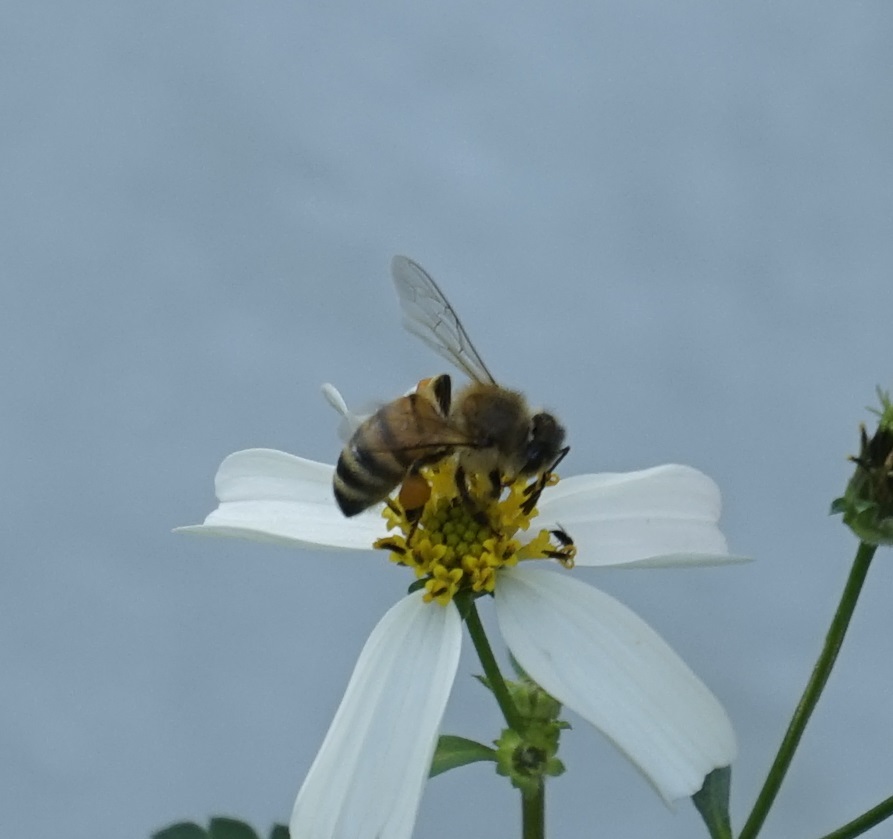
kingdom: Animalia
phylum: Arthropoda
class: Insecta
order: Hymenoptera
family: Apidae
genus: Apis
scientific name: Apis mellifera
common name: Honey bee
